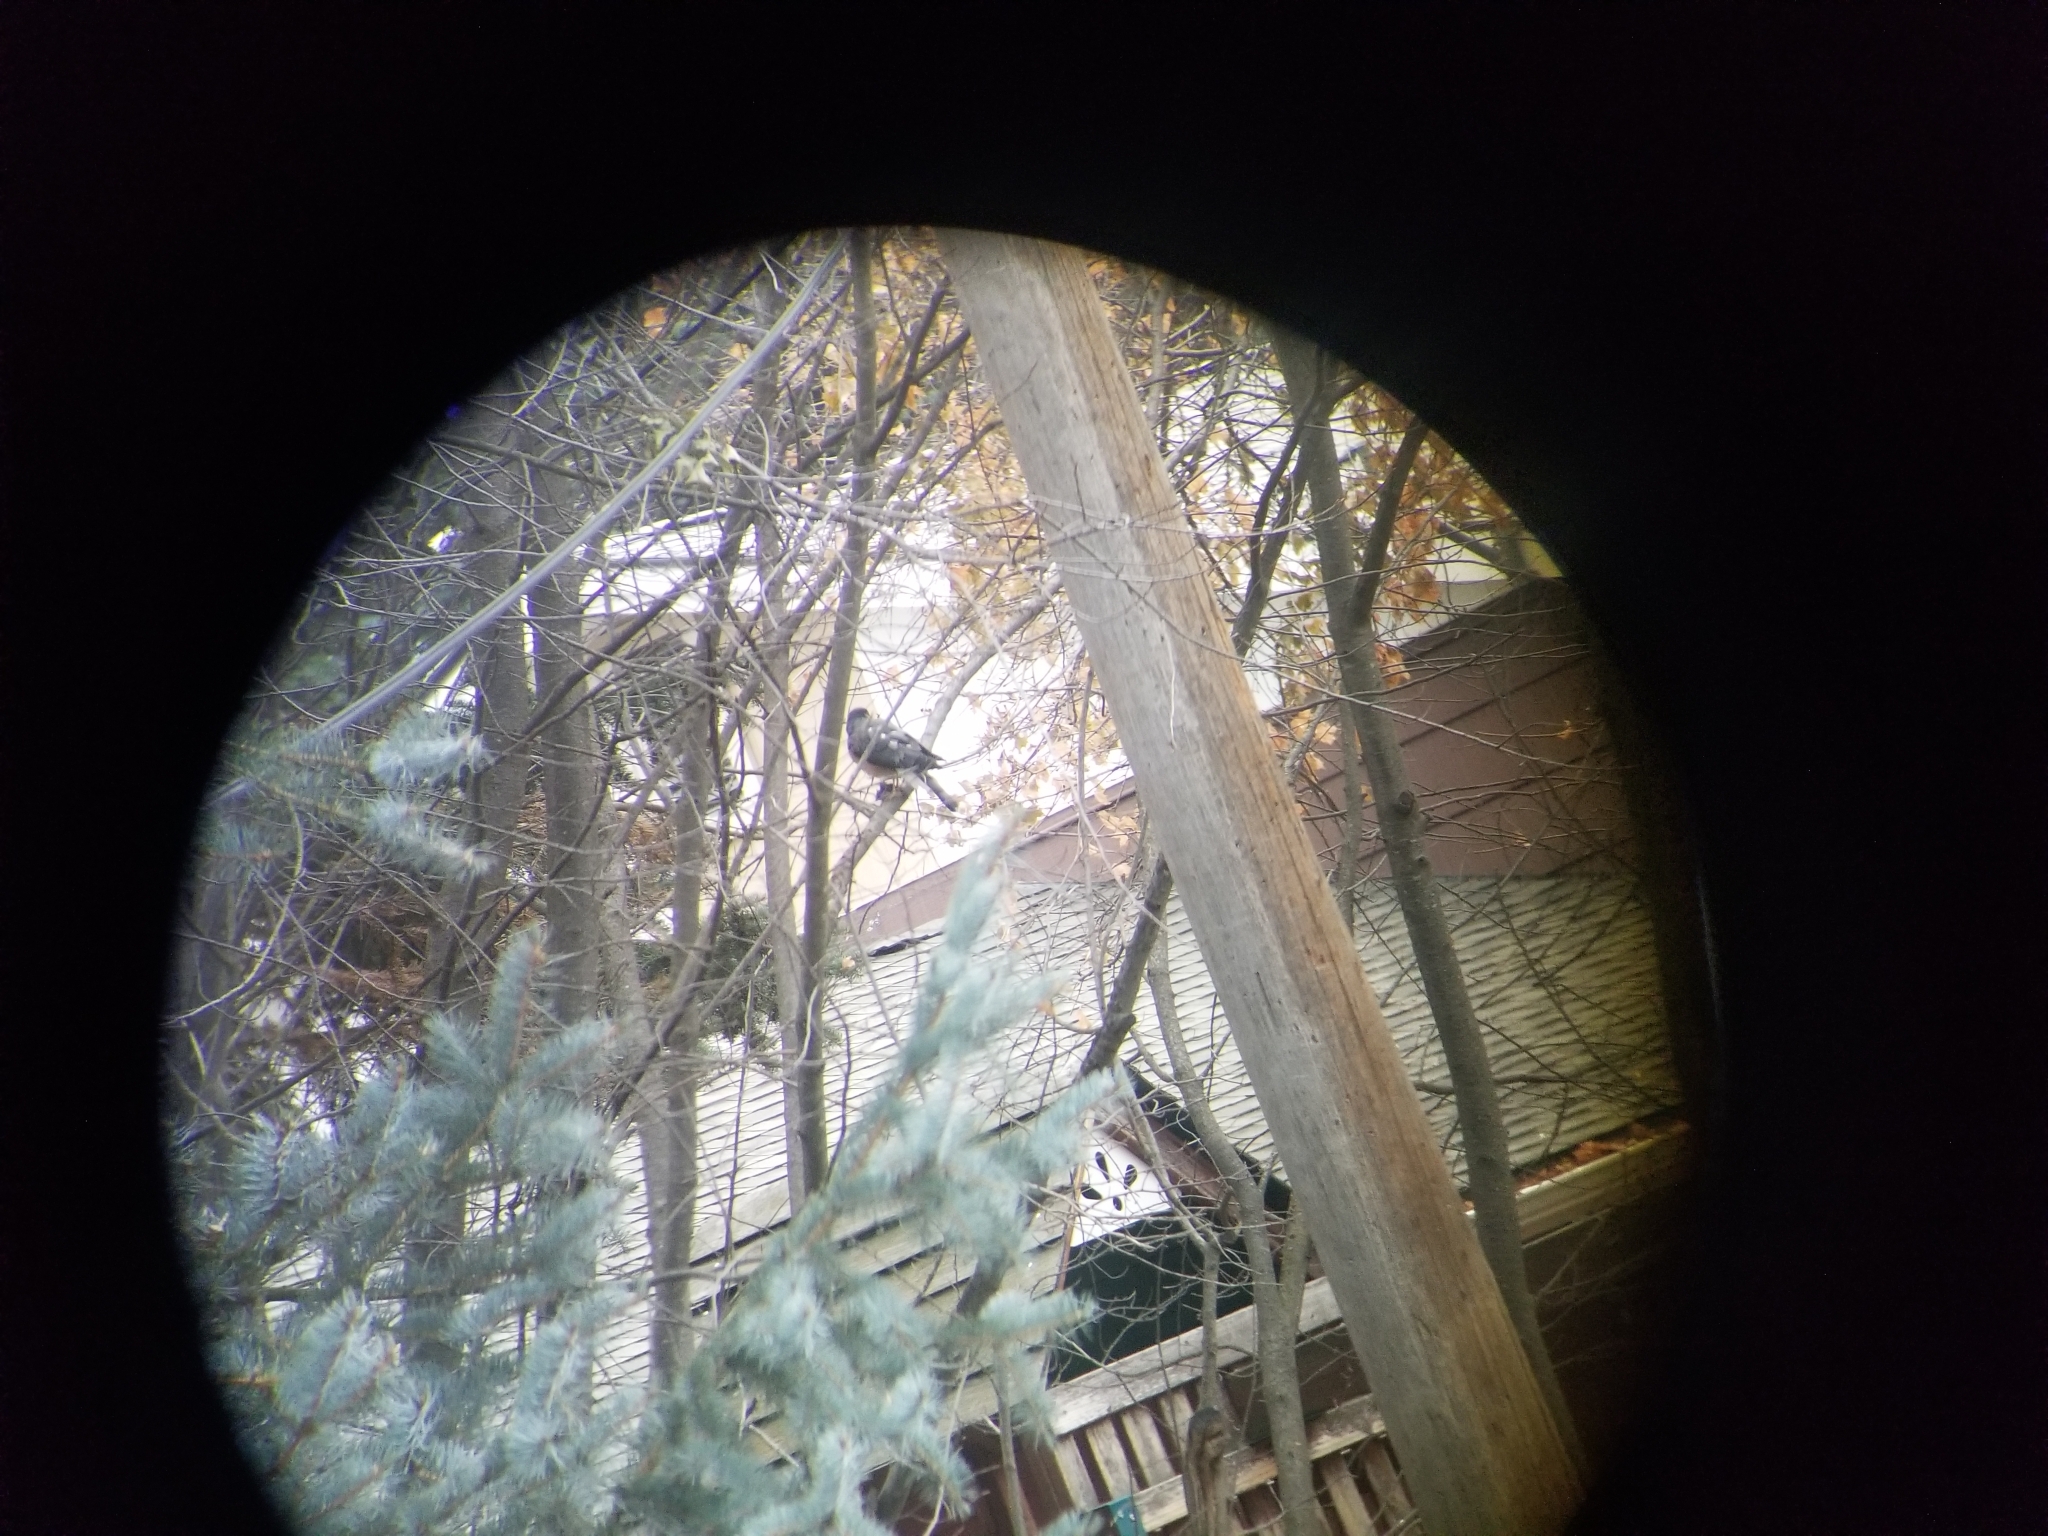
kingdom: Animalia
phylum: Chordata
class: Aves
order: Accipitriformes
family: Accipitridae
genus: Accipiter
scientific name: Accipiter striatus
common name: Sharp-shinned hawk
